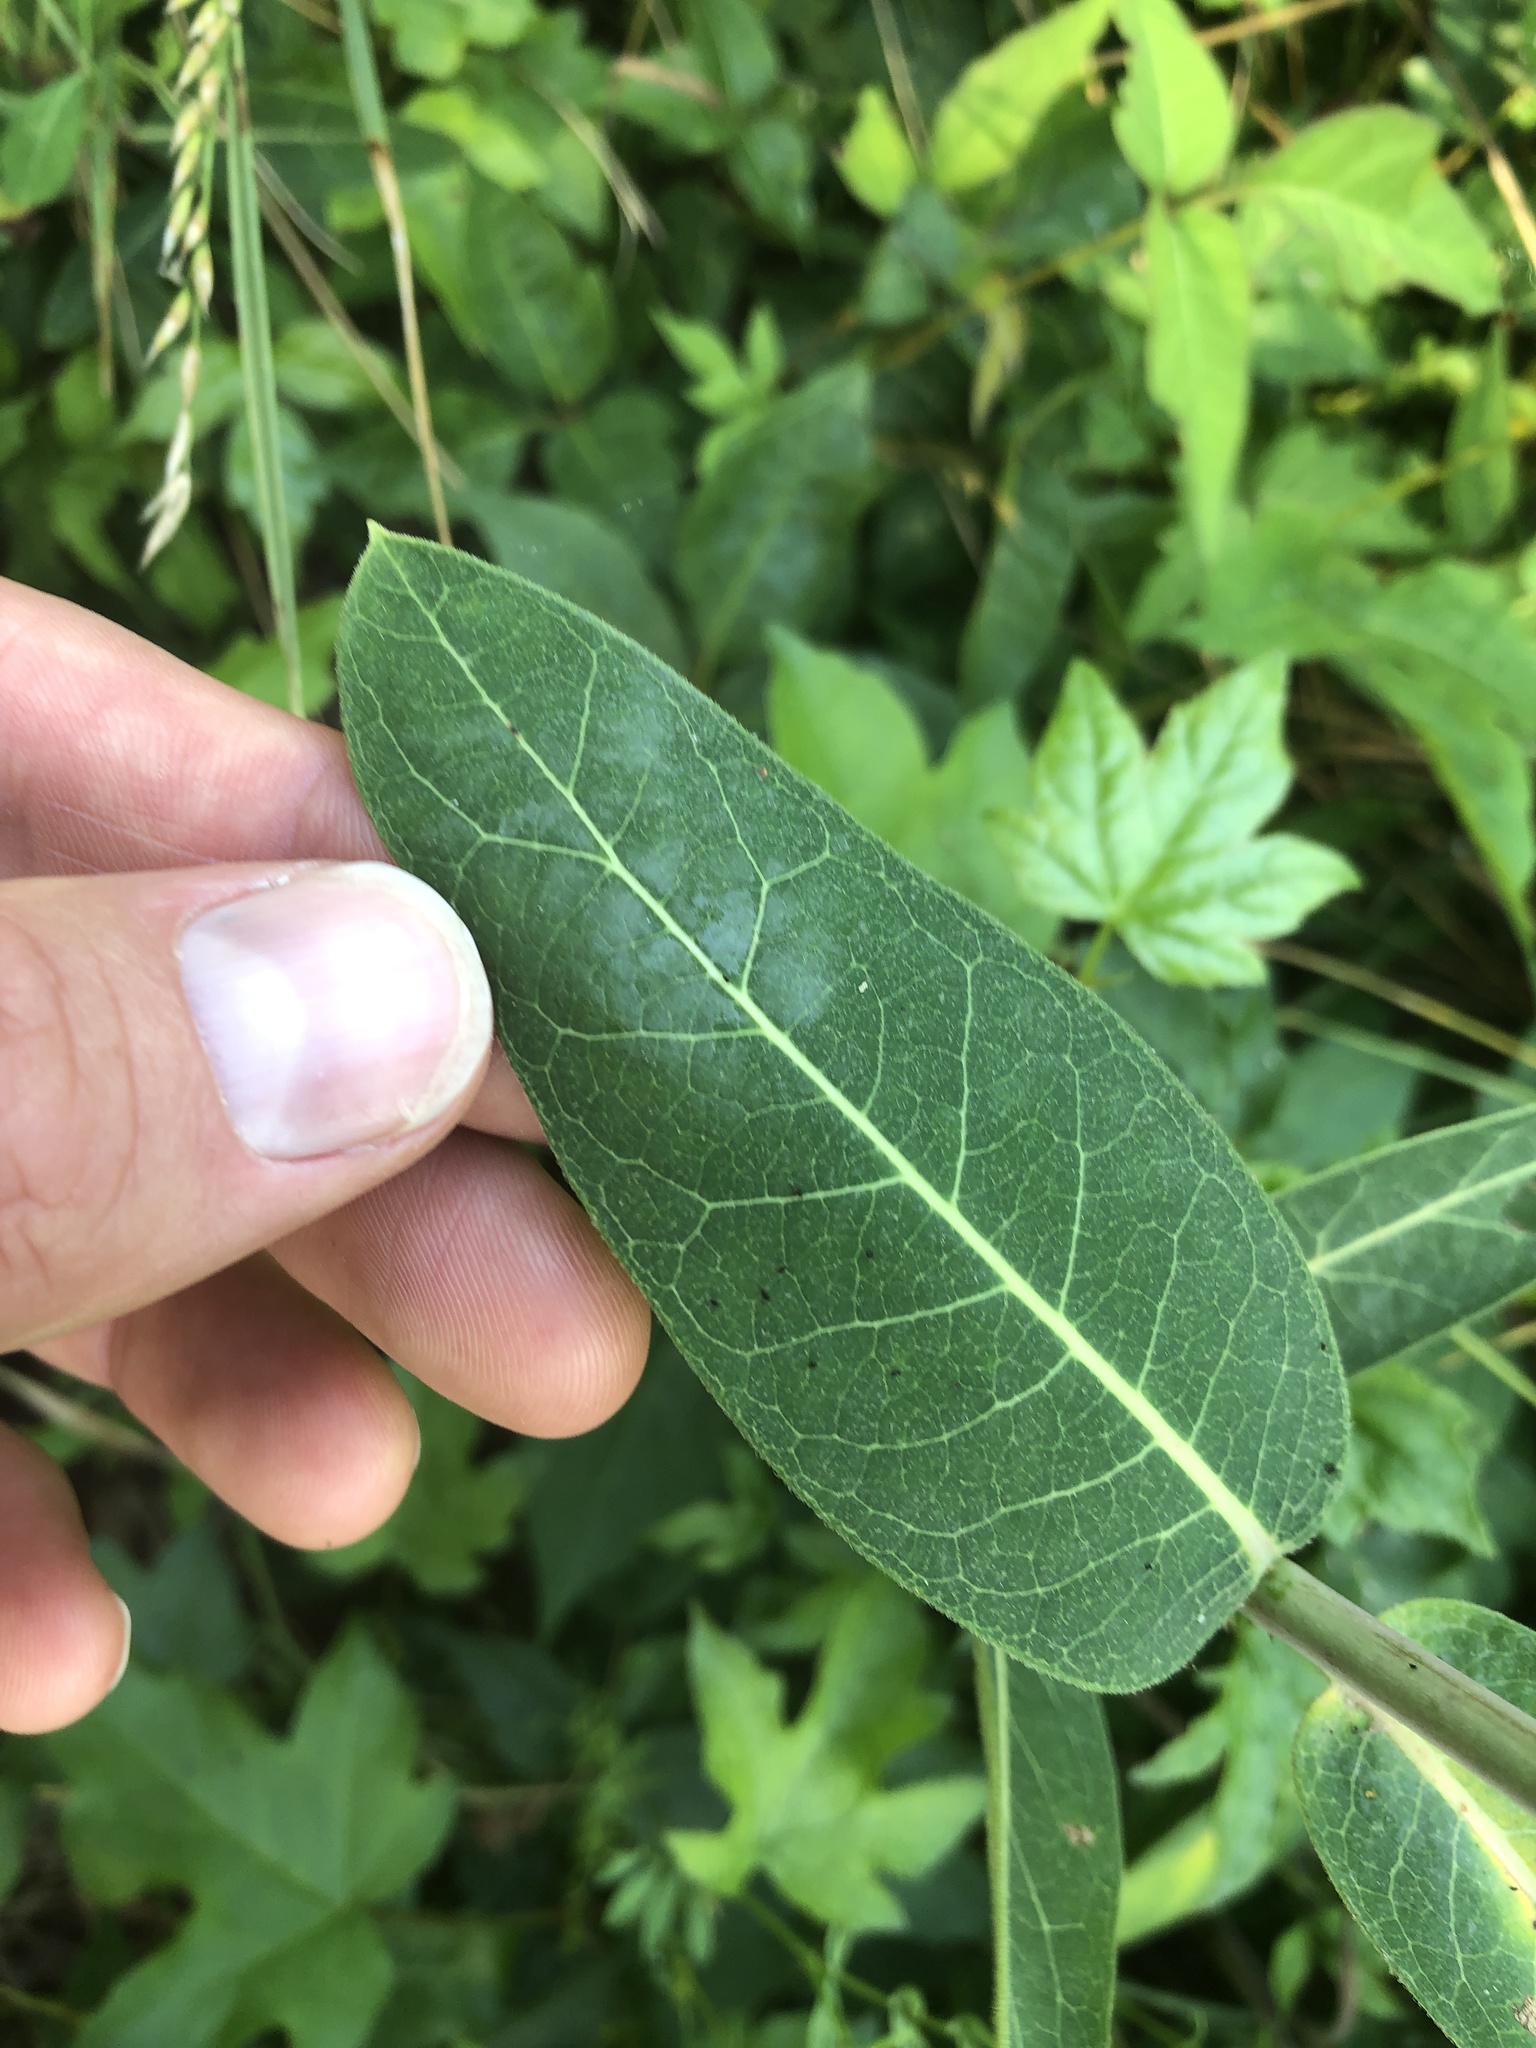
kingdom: Plantae
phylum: Tracheophyta
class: Magnoliopsida
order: Gentianales
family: Apocynaceae
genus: Apocynum
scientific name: Apocynum cannabinum
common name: Hemp dogbane
